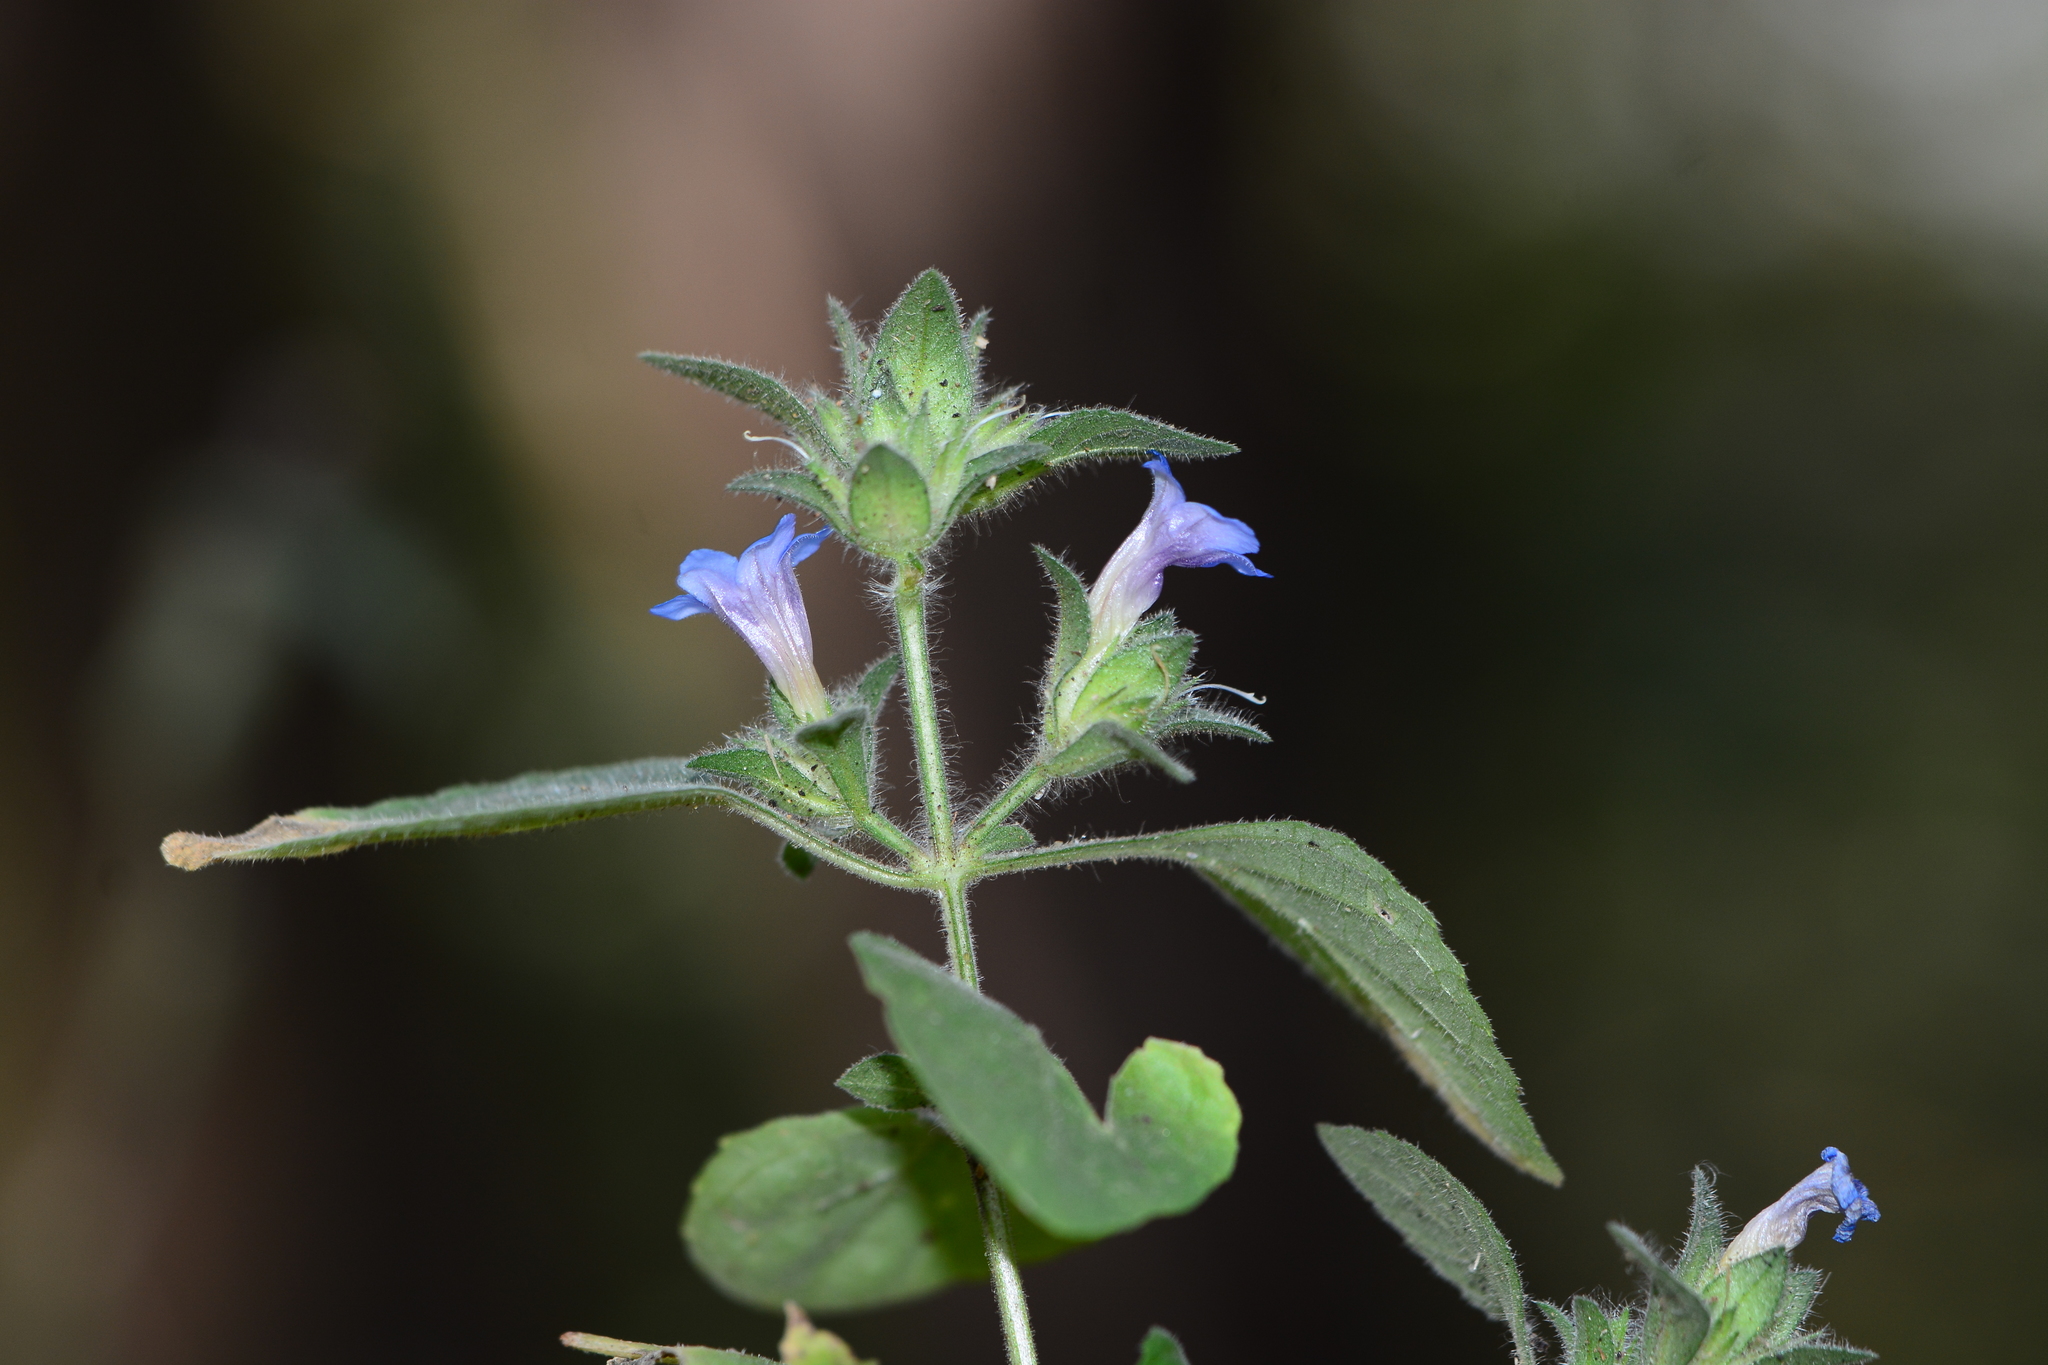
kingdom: Plantae
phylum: Tracheophyta
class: Magnoliopsida
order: Lamiales
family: Acanthaceae
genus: Strobilanthes
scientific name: Strobilanthes pavala
